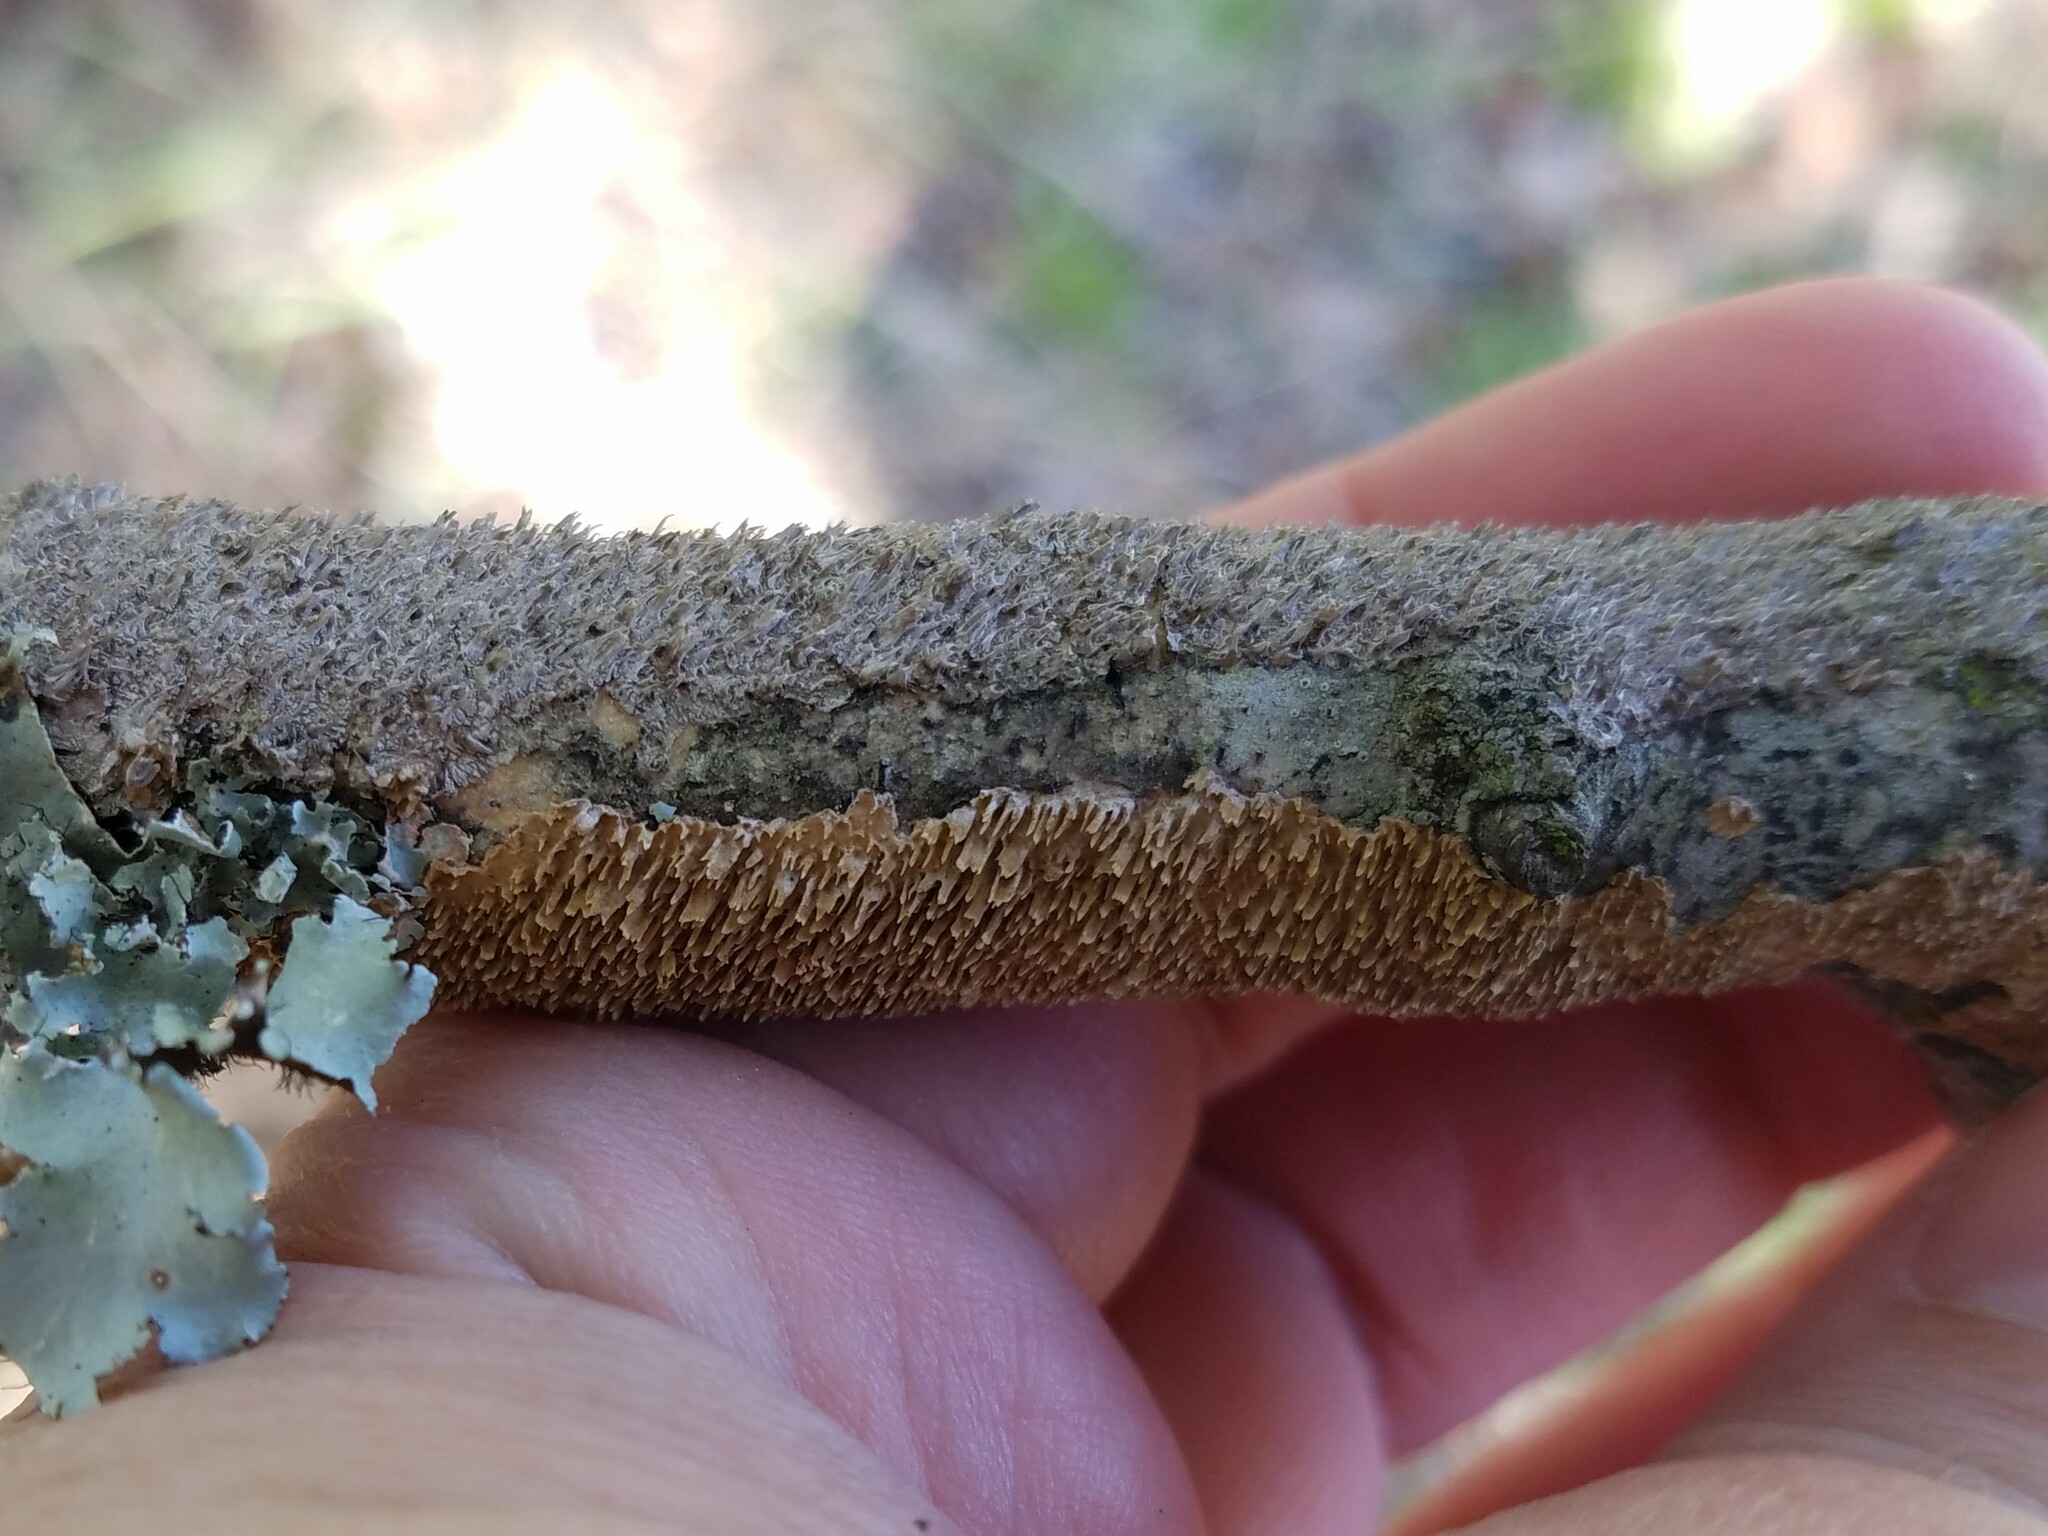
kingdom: Fungi
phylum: Basidiomycota
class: Agaricomycetes
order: Hymenochaetales
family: Hymenochaetaceae
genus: Hydnoporia
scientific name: Hydnoporia olivacea
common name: Brown-toothed crust fungus
